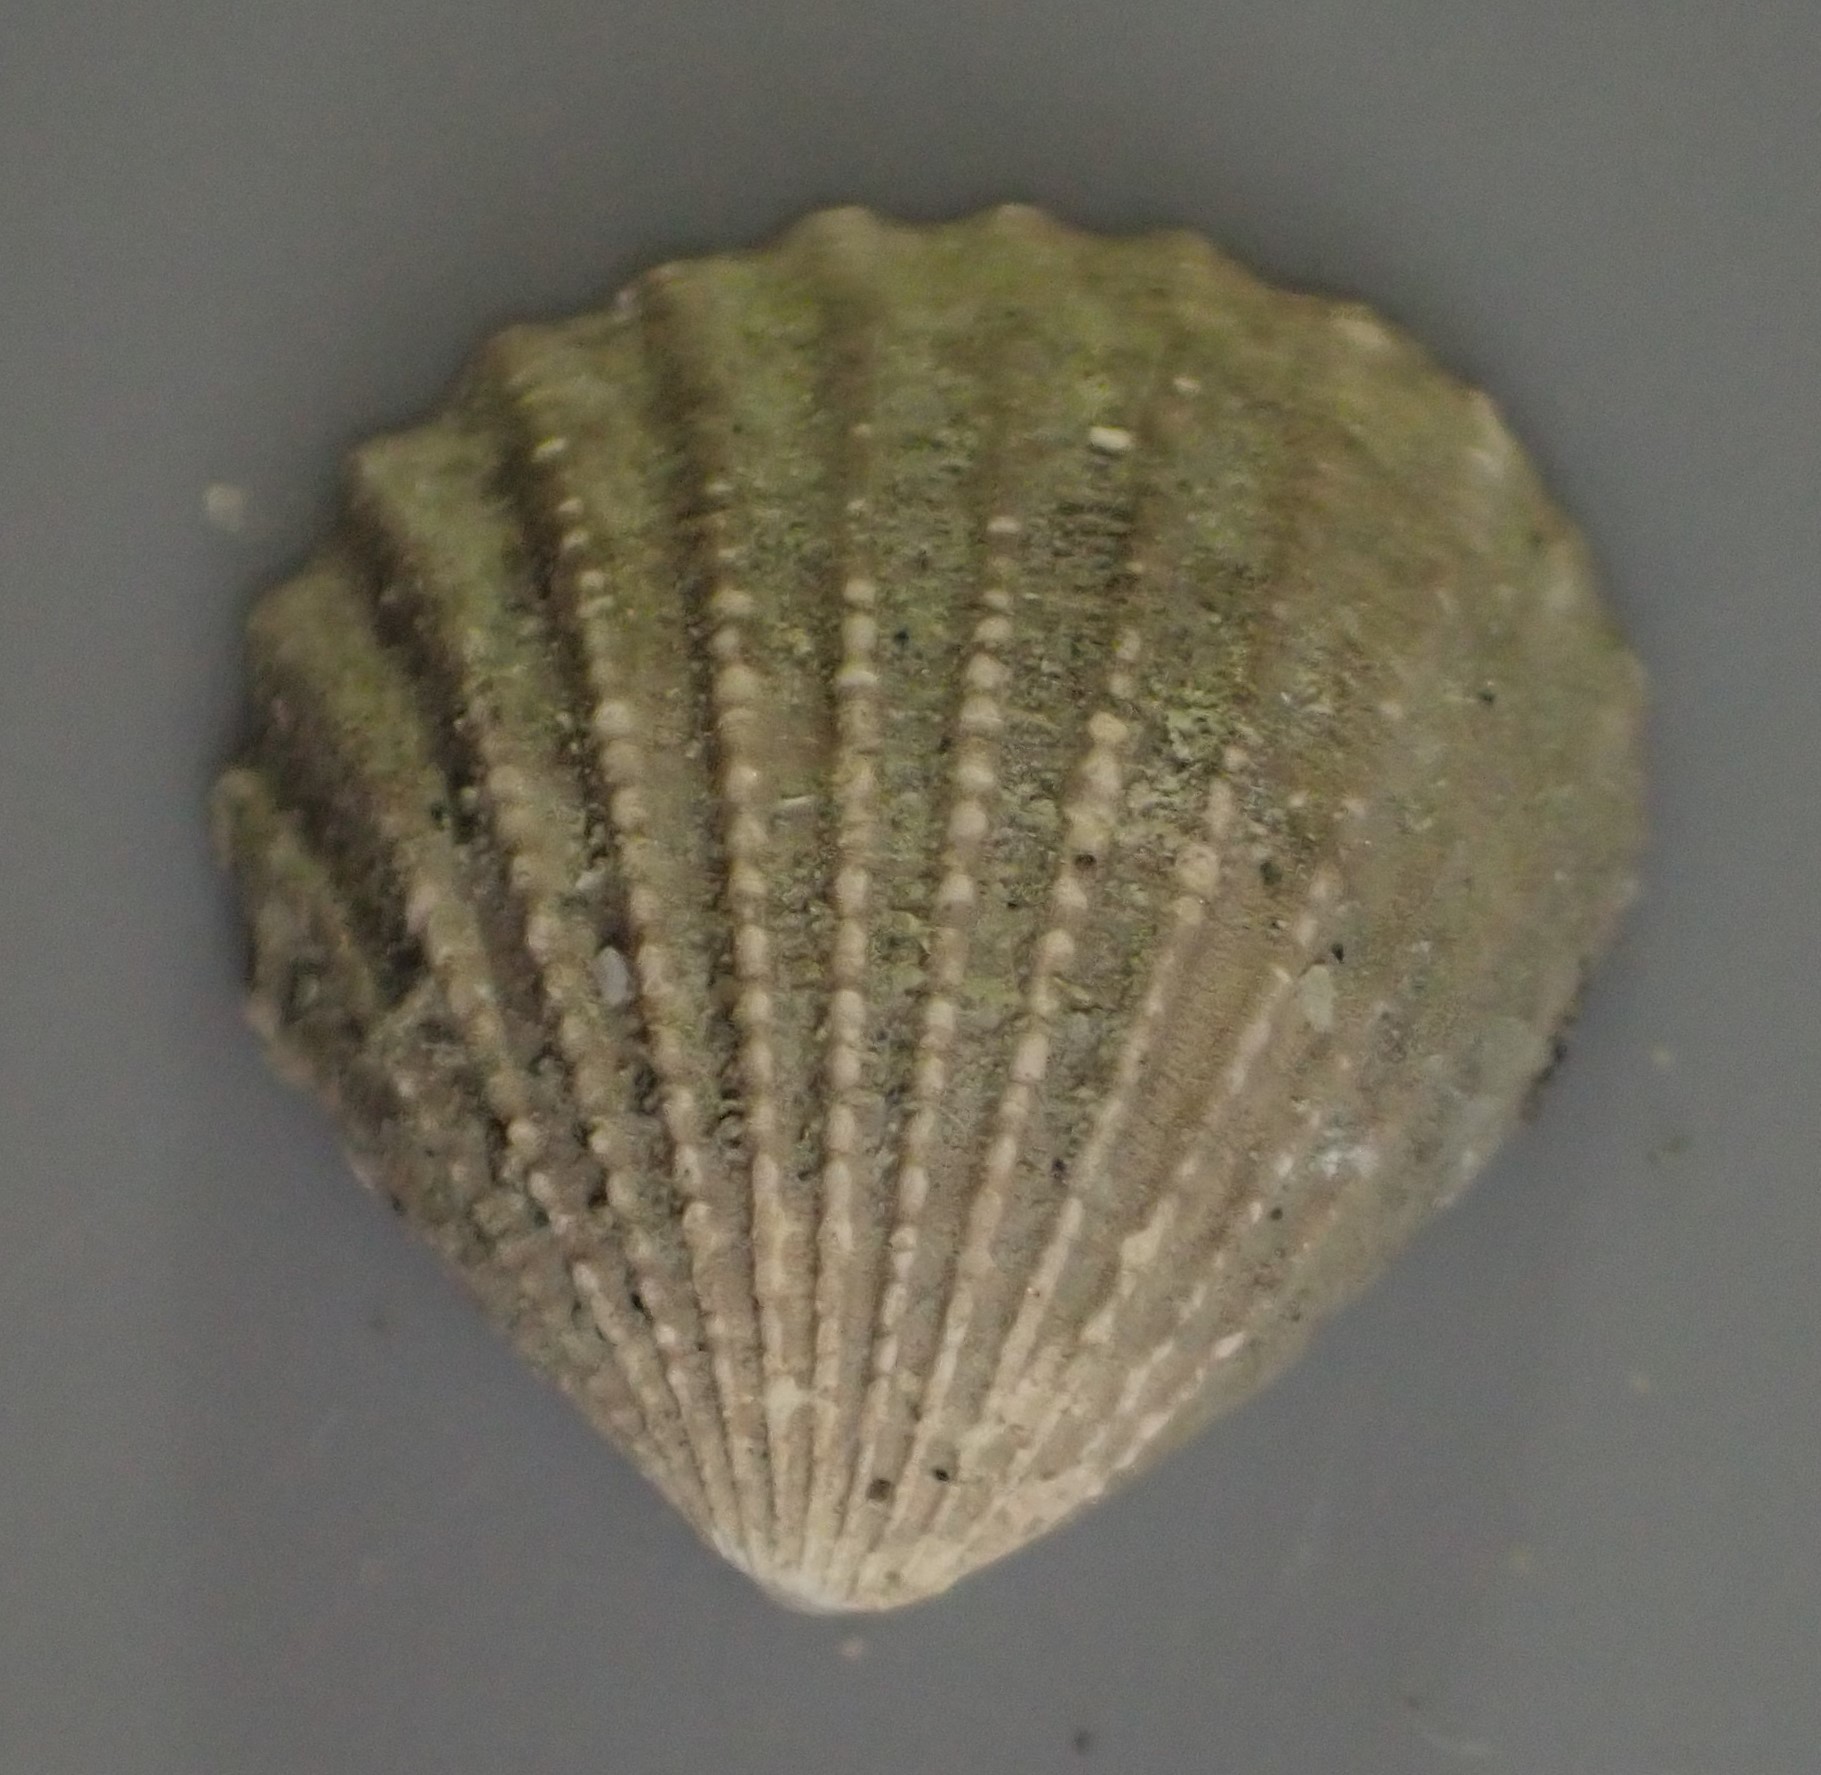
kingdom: Animalia
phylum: Mollusca
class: Bivalvia
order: Carditida
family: Carditidae
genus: Pleuromeris
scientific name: Pleuromeris zelandica
